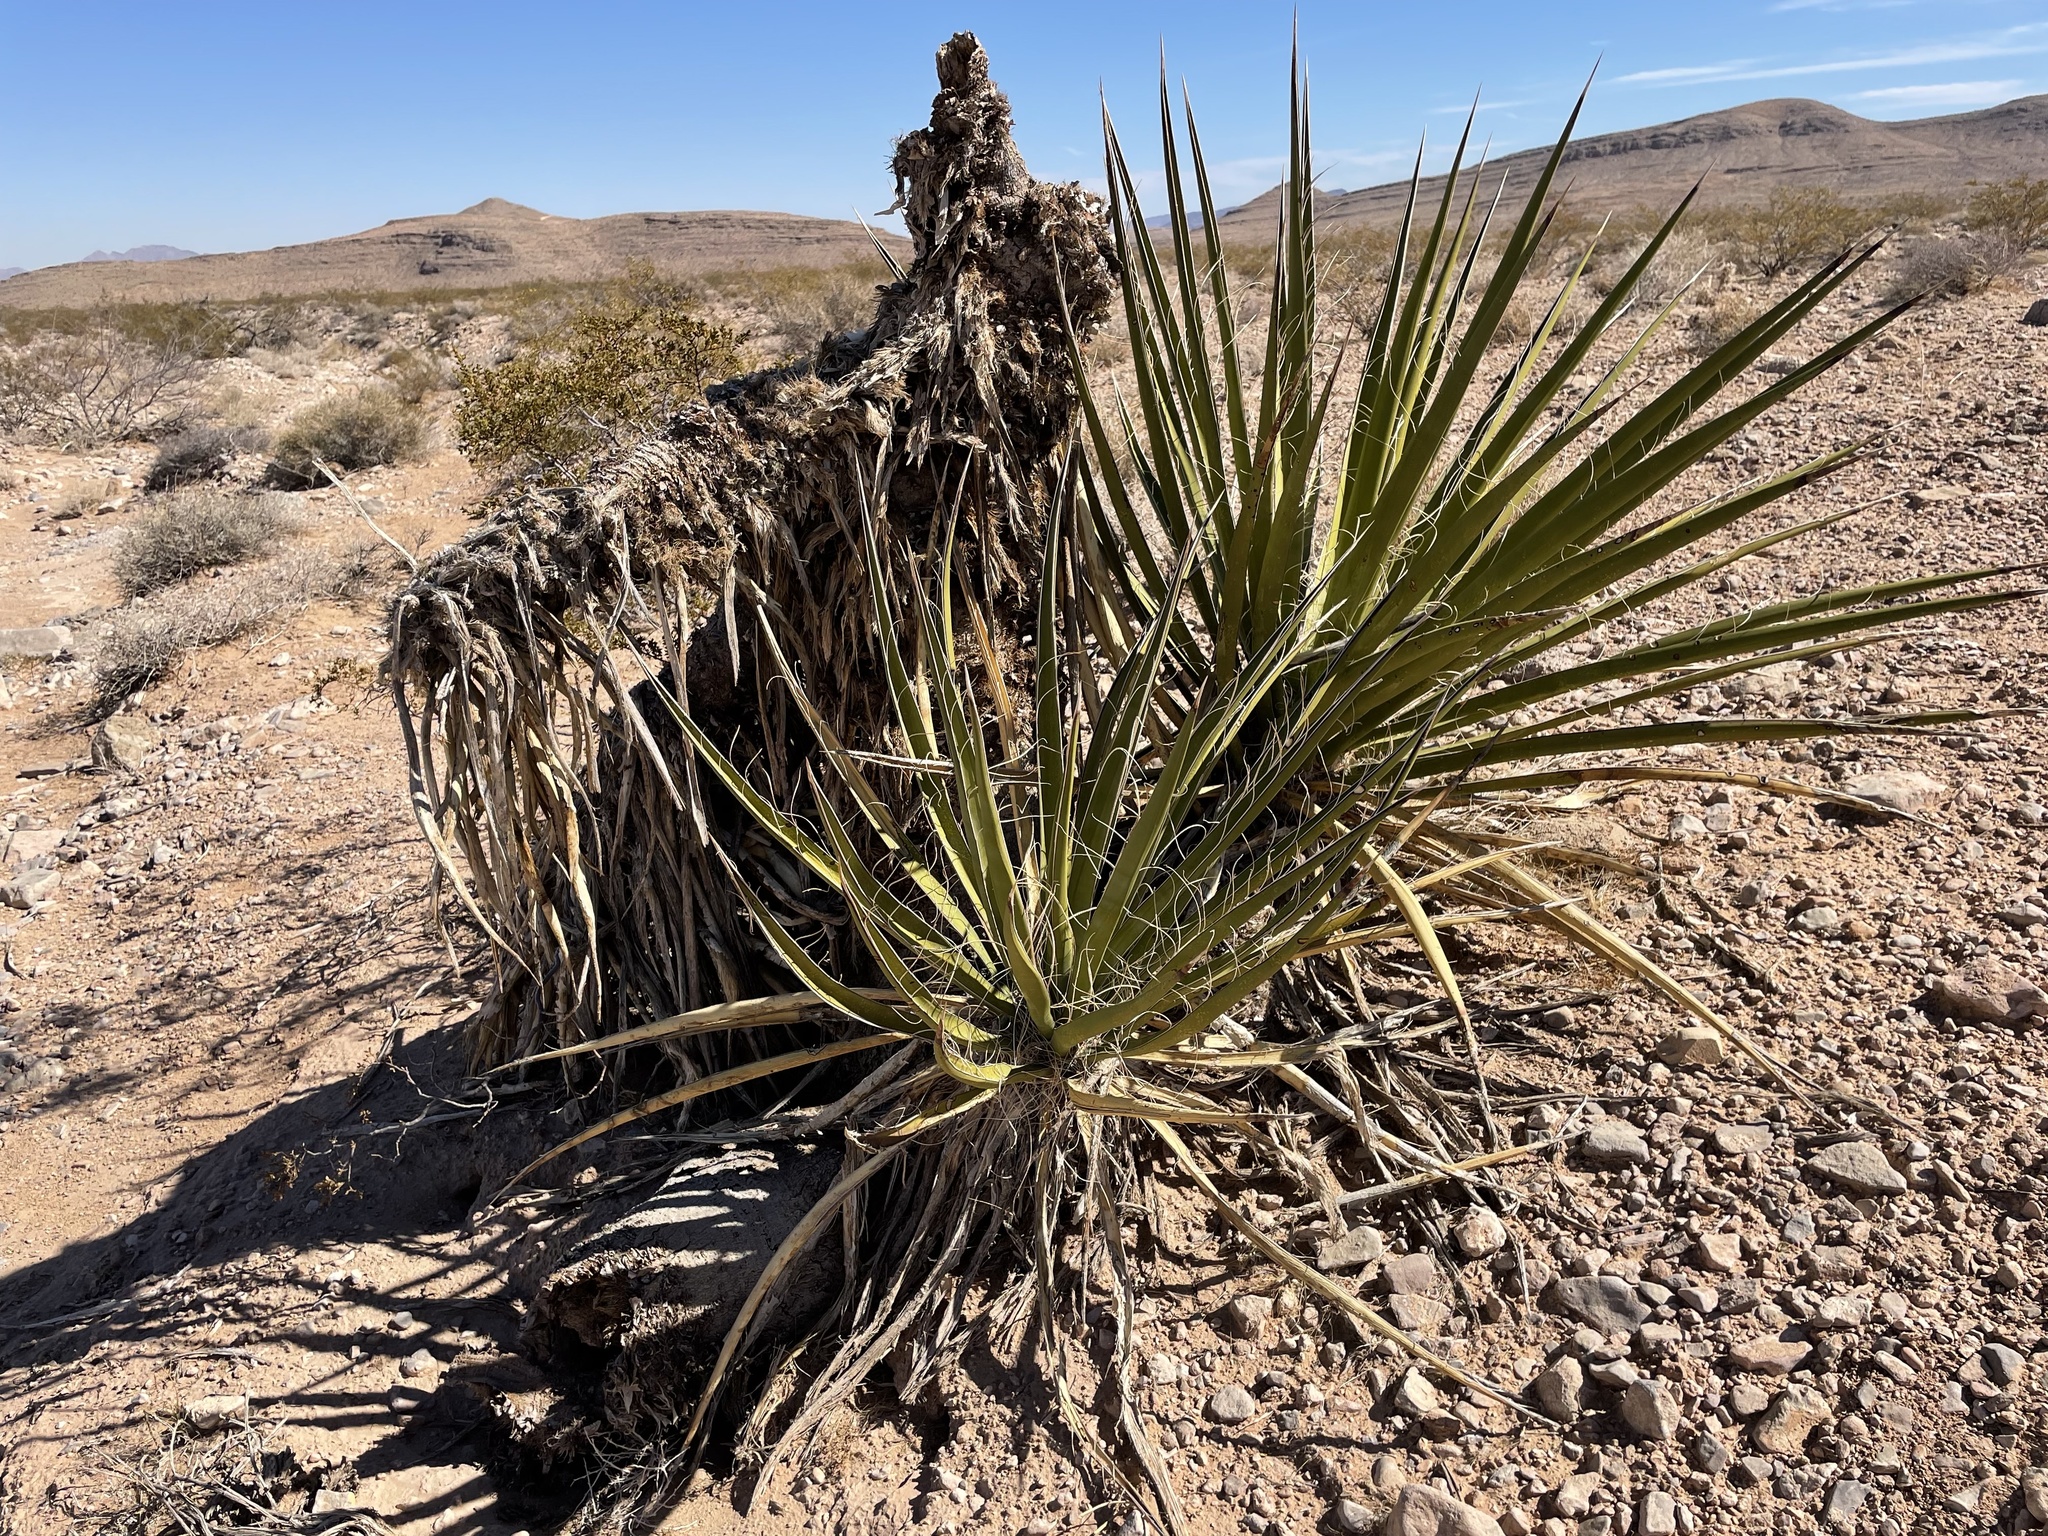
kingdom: Plantae
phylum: Tracheophyta
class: Liliopsida
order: Asparagales
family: Asparagaceae
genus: Yucca
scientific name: Yucca schidigera
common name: Mojave yucca
